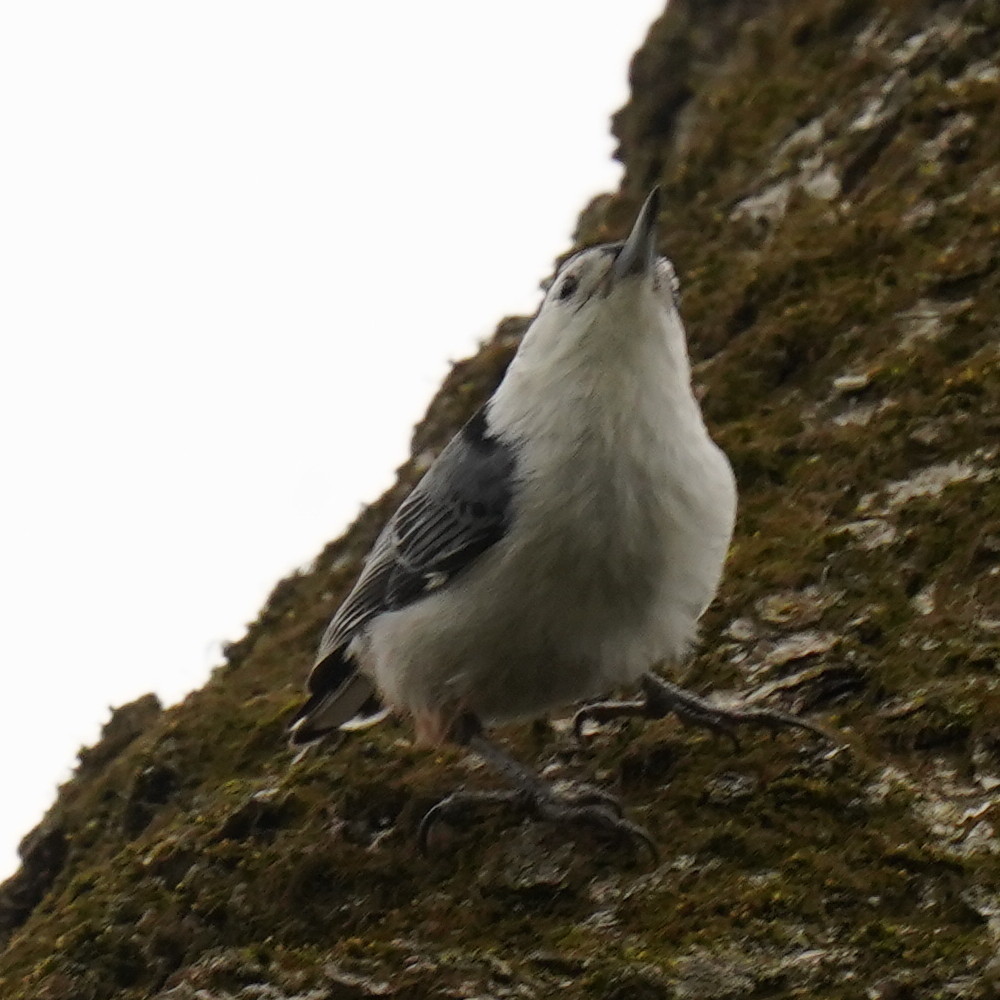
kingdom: Animalia
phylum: Chordata
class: Aves
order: Passeriformes
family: Sittidae
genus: Sitta
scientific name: Sitta carolinensis
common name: White-breasted nuthatch
